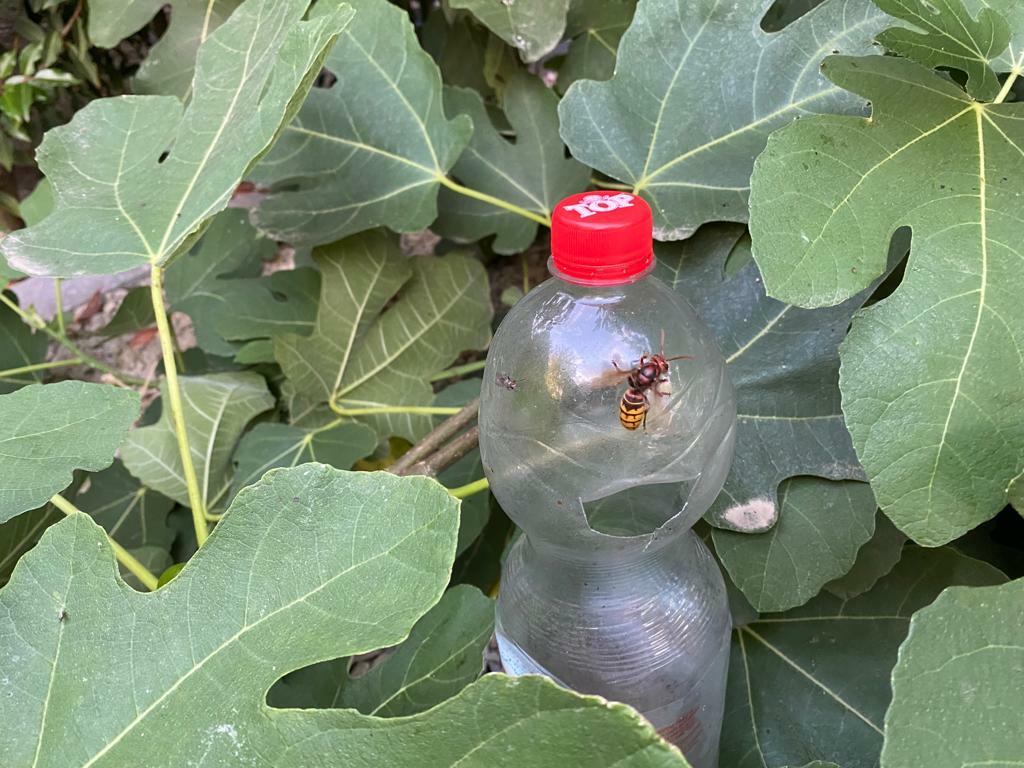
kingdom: Animalia
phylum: Arthropoda
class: Insecta
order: Hymenoptera
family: Vespidae
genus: Vespa
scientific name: Vespa crabro
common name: Hornet
